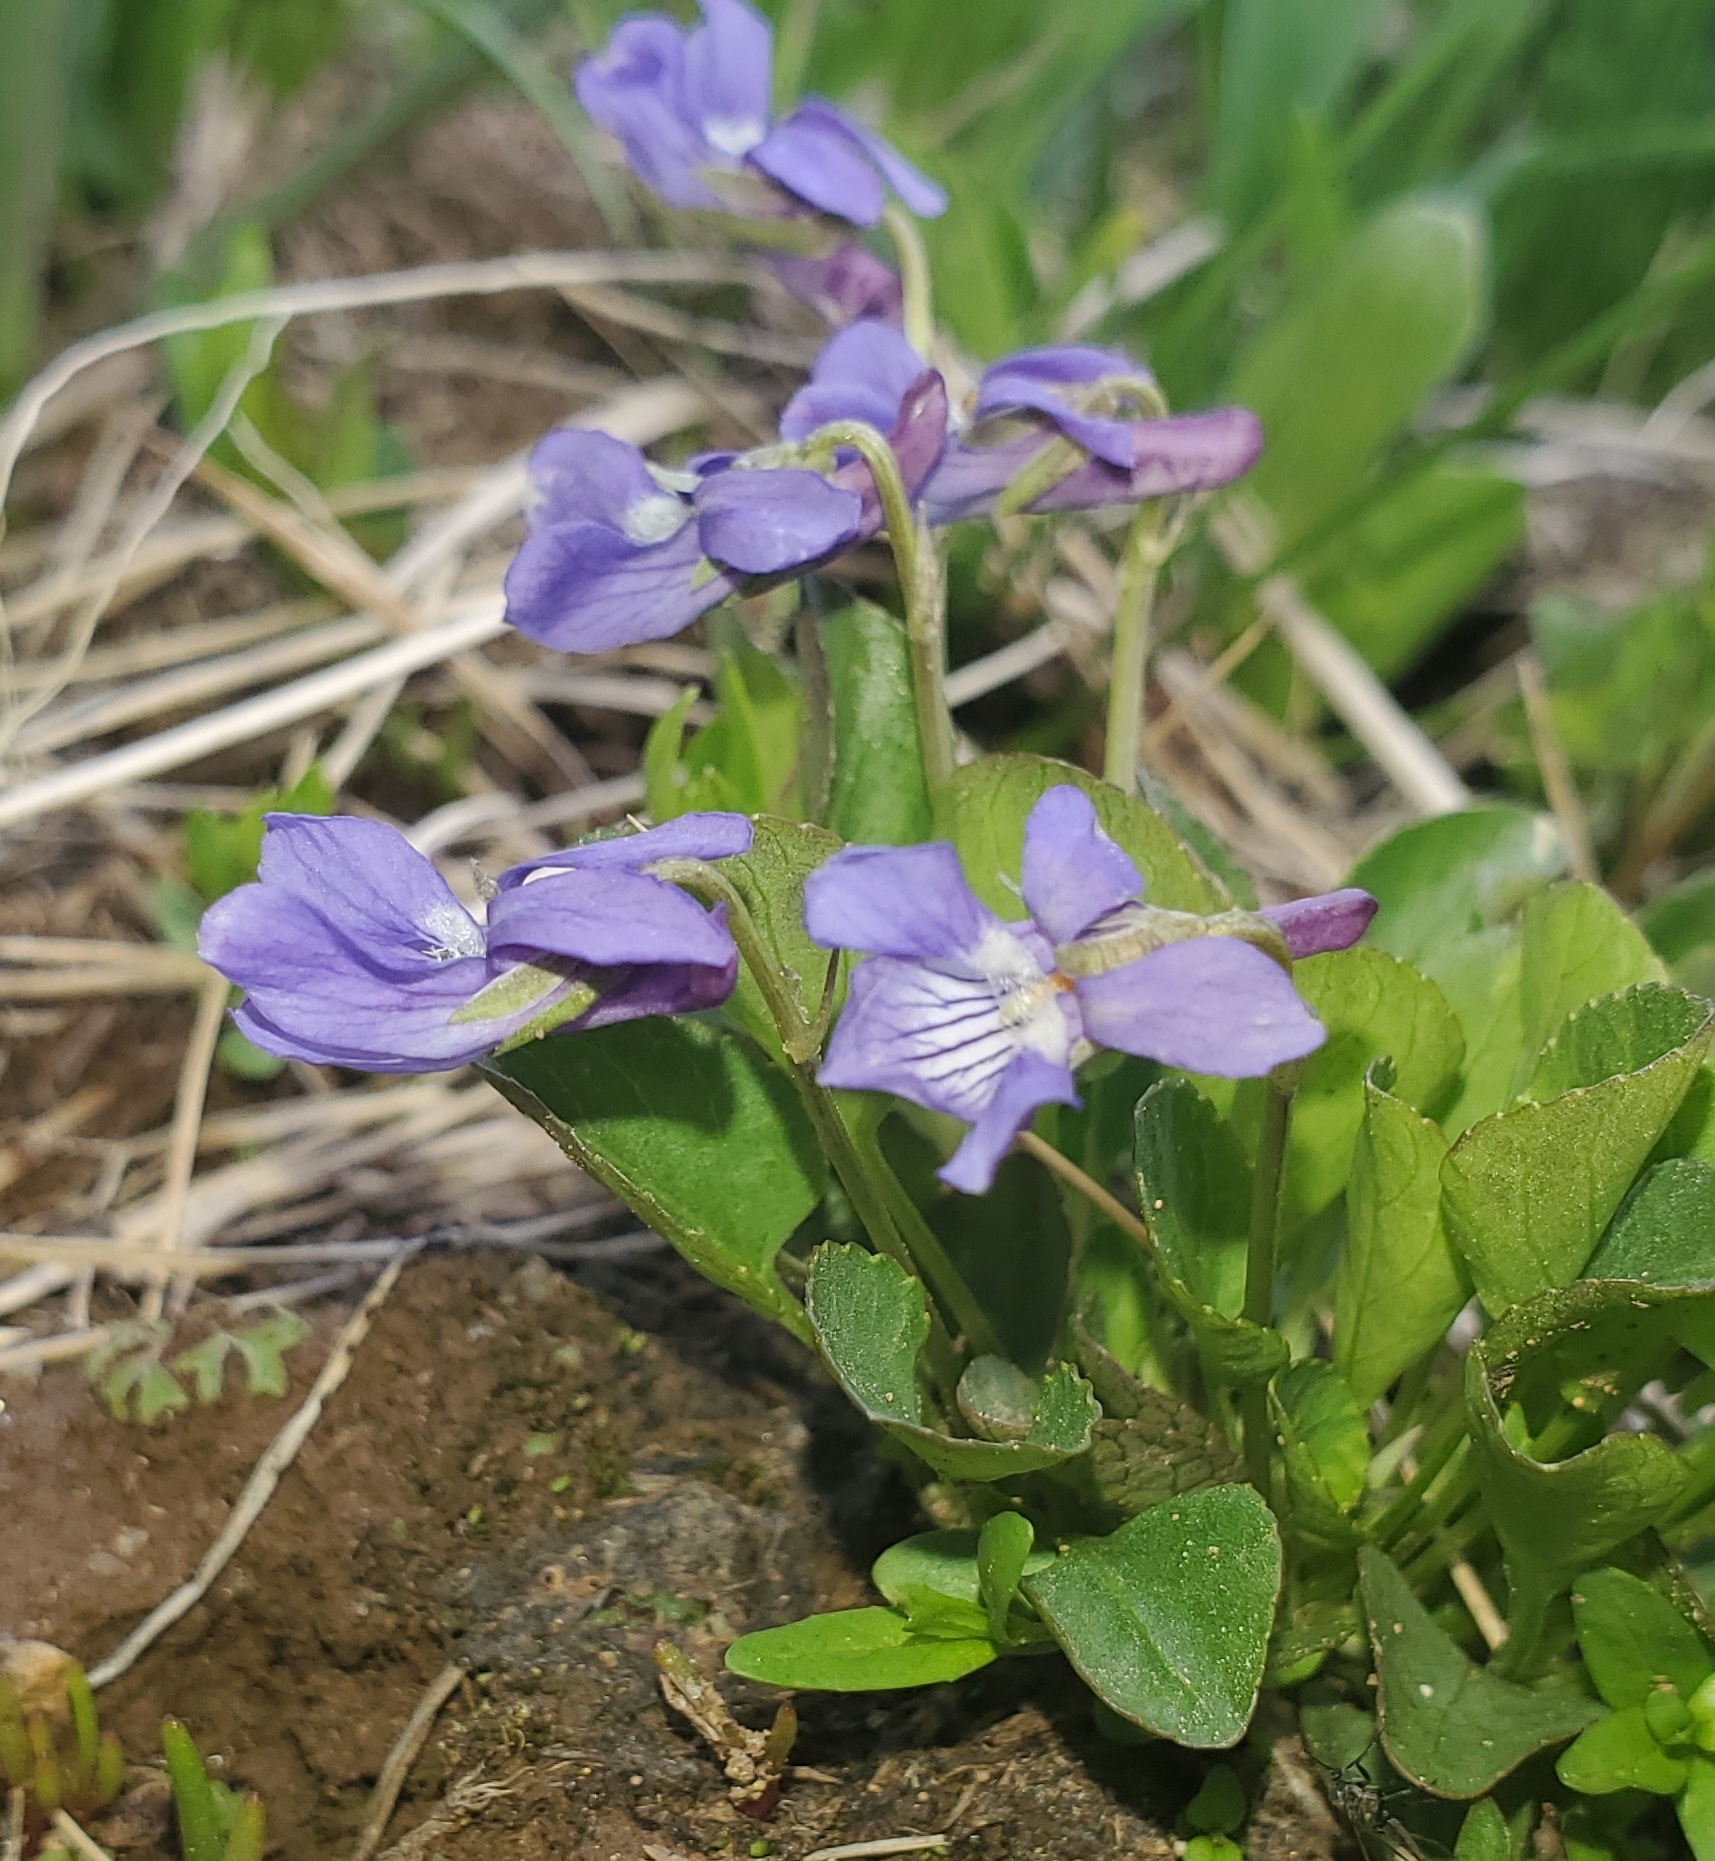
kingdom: Plantae
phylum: Tracheophyta
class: Magnoliopsida
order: Malpighiales
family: Violaceae
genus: Viola
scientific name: Viola adunca
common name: Sand violet
